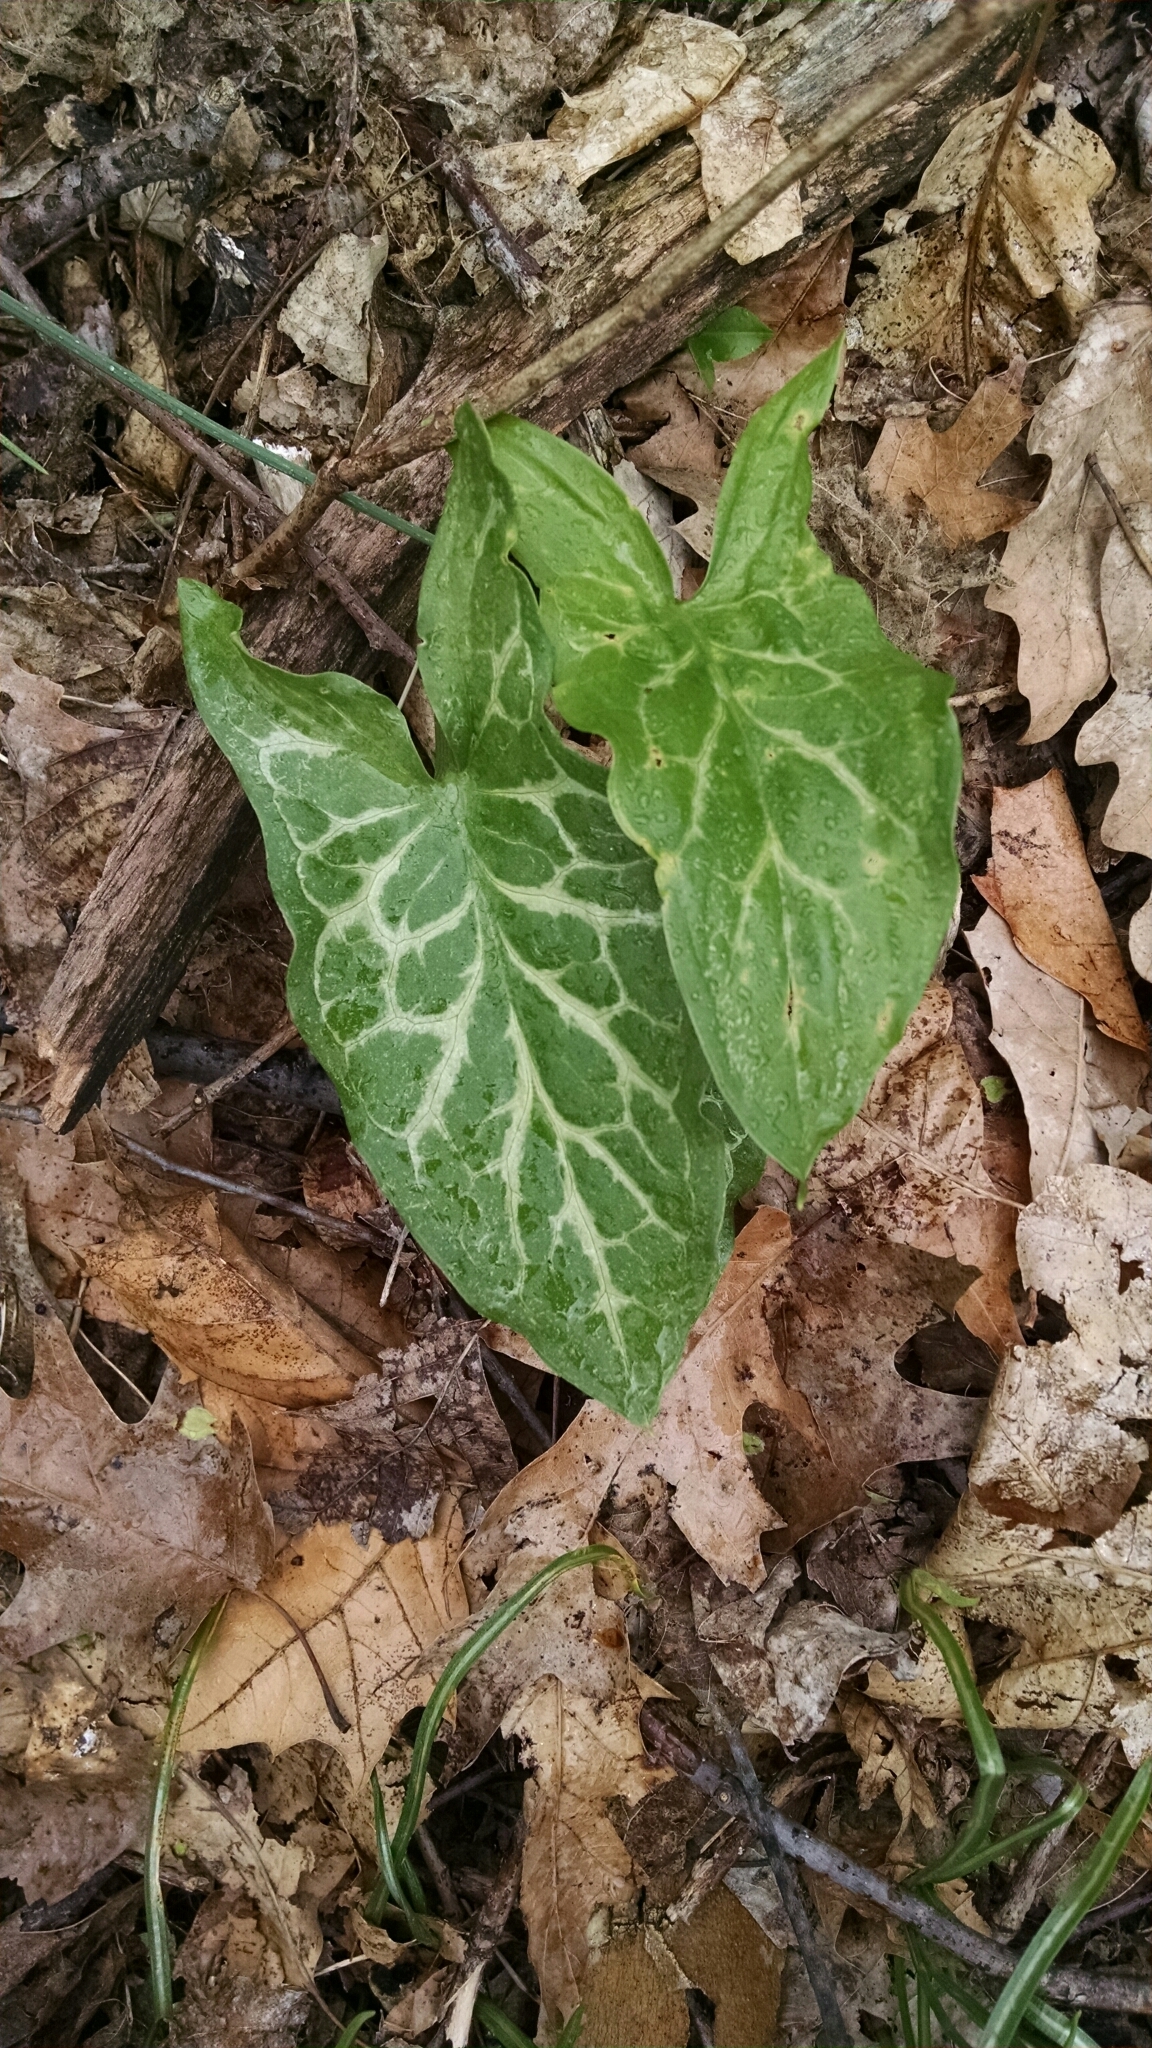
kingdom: Plantae
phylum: Tracheophyta
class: Liliopsida
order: Alismatales
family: Araceae
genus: Arum
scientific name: Arum italicum
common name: Italian lords-and-ladies
